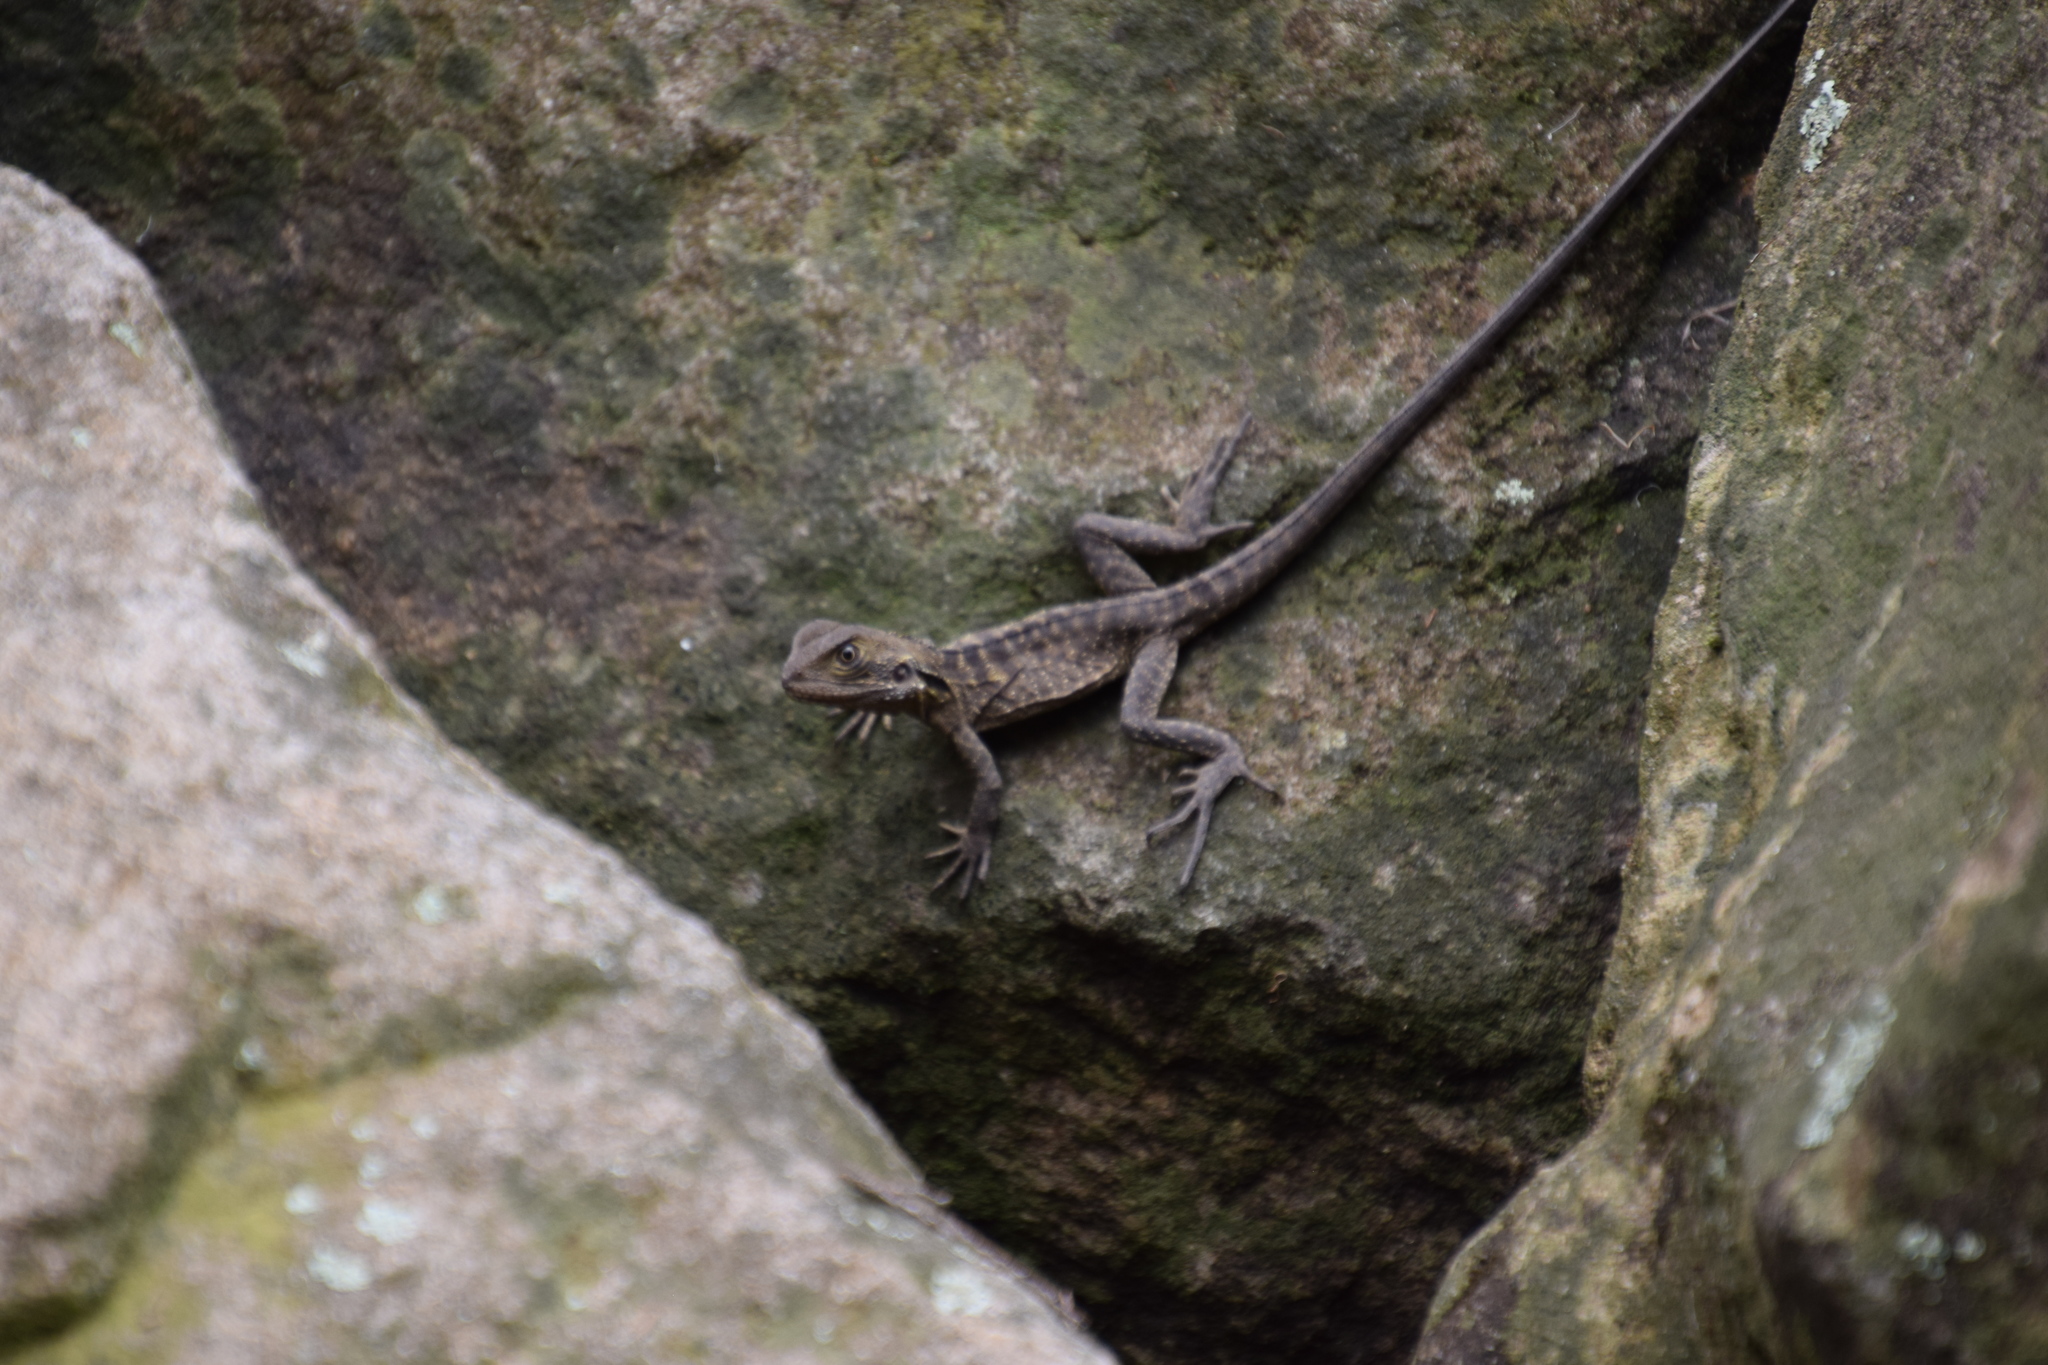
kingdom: Animalia
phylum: Chordata
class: Squamata
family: Agamidae
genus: Intellagama
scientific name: Intellagama lesueurii
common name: Eastern water dragon
